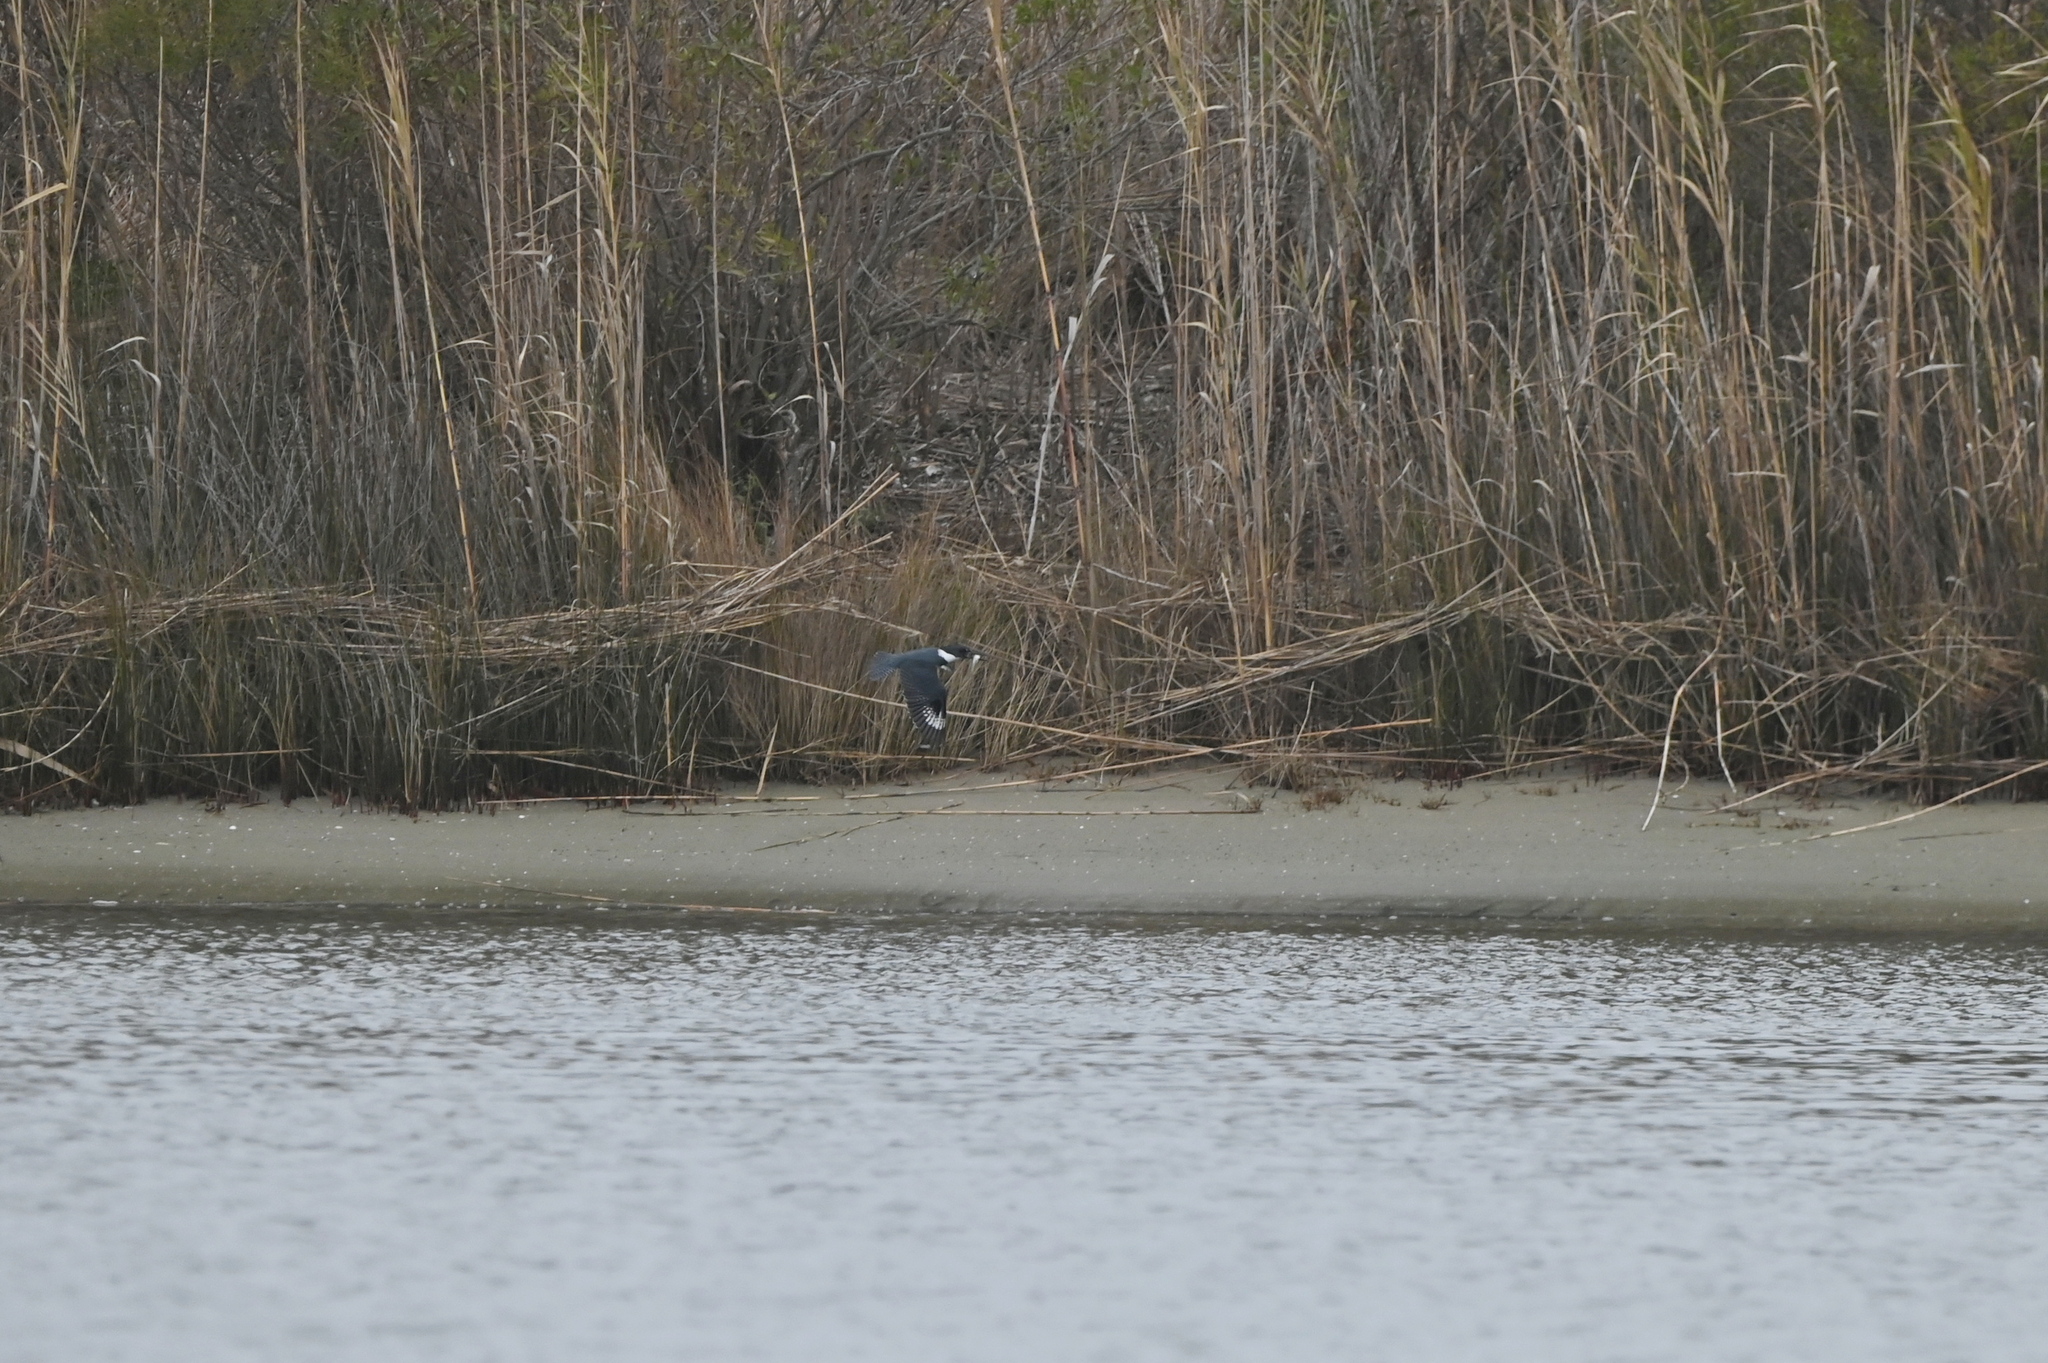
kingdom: Animalia
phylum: Chordata
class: Aves
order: Coraciiformes
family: Alcedinidae
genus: Megaceryle
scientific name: Megaceryle alcyon
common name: Belted kingfisher
